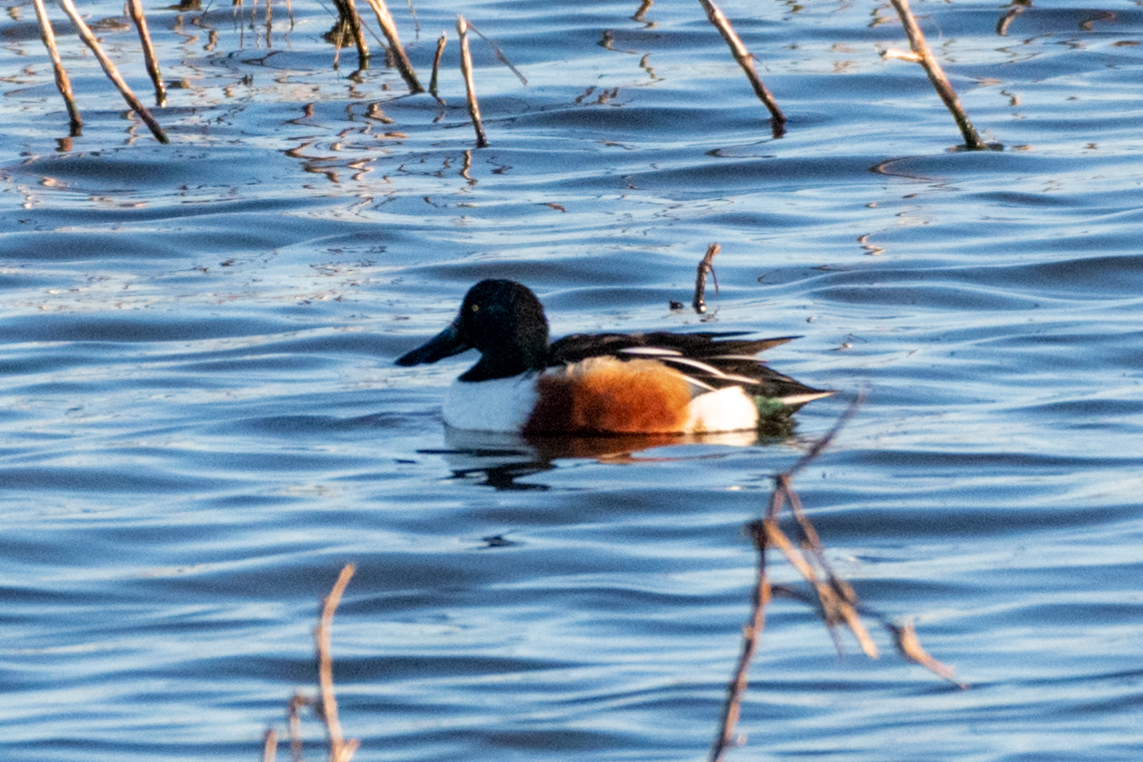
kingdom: Animalia
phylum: Chordata
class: Aves
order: Anseriformes
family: Anatidae
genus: Spatula
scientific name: Spatula clypeata
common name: Northern shoveler
